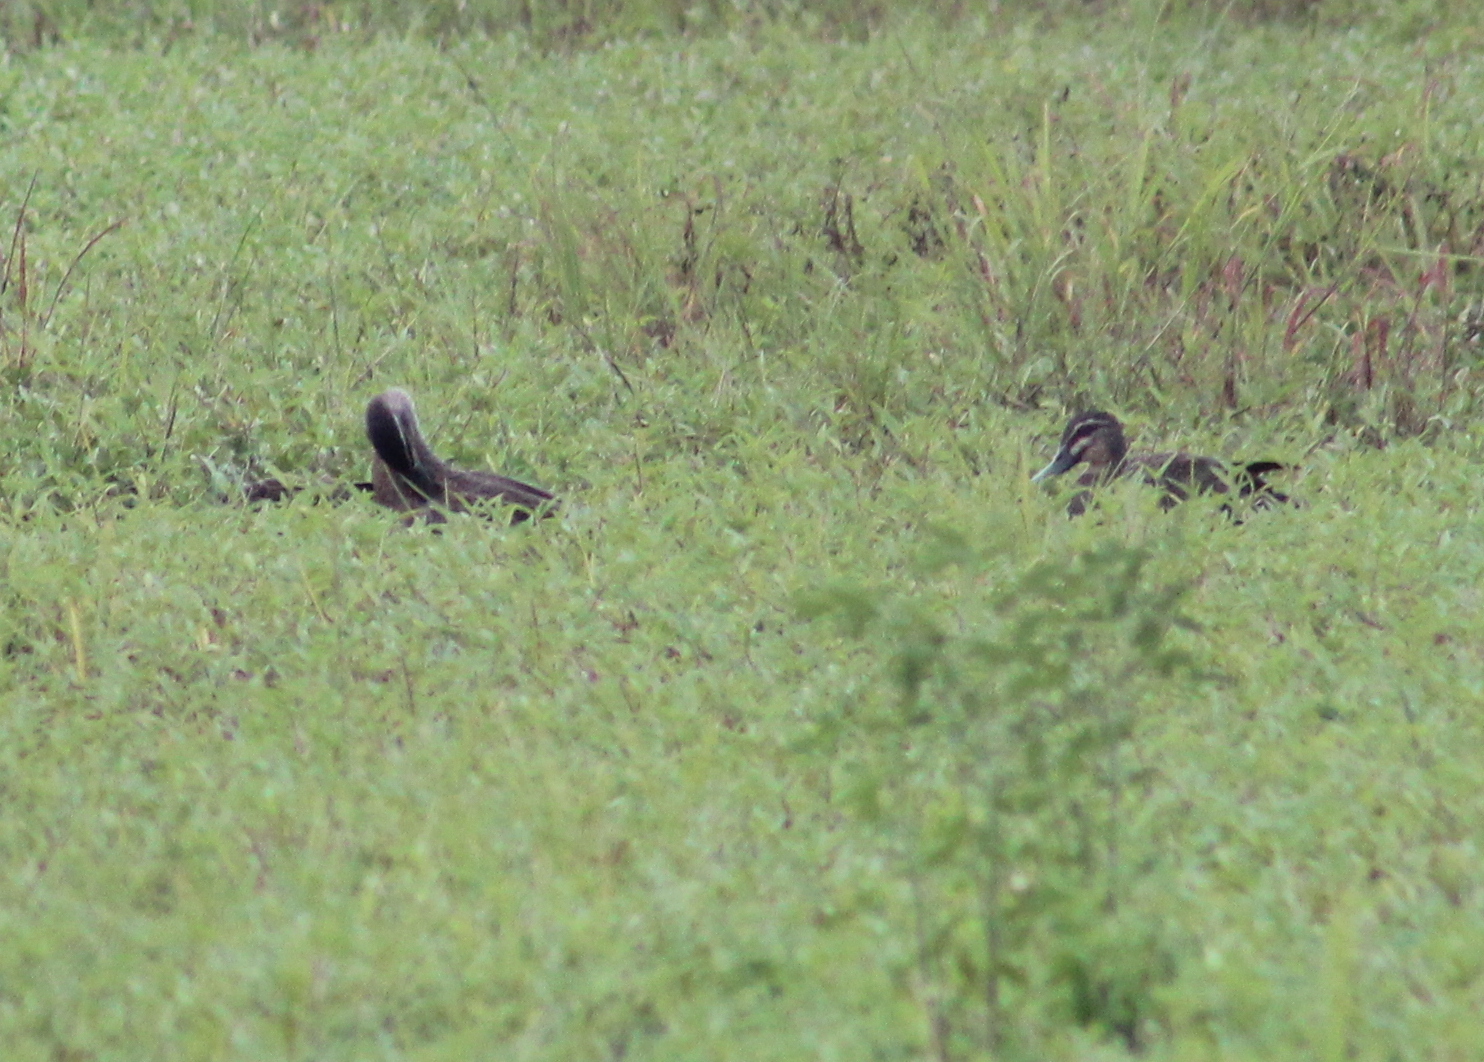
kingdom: Animalia
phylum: Chordata
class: Aves
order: Anseriformes
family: Anatidae
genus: Anas
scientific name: Anas superciliosa
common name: Pacific black duck
